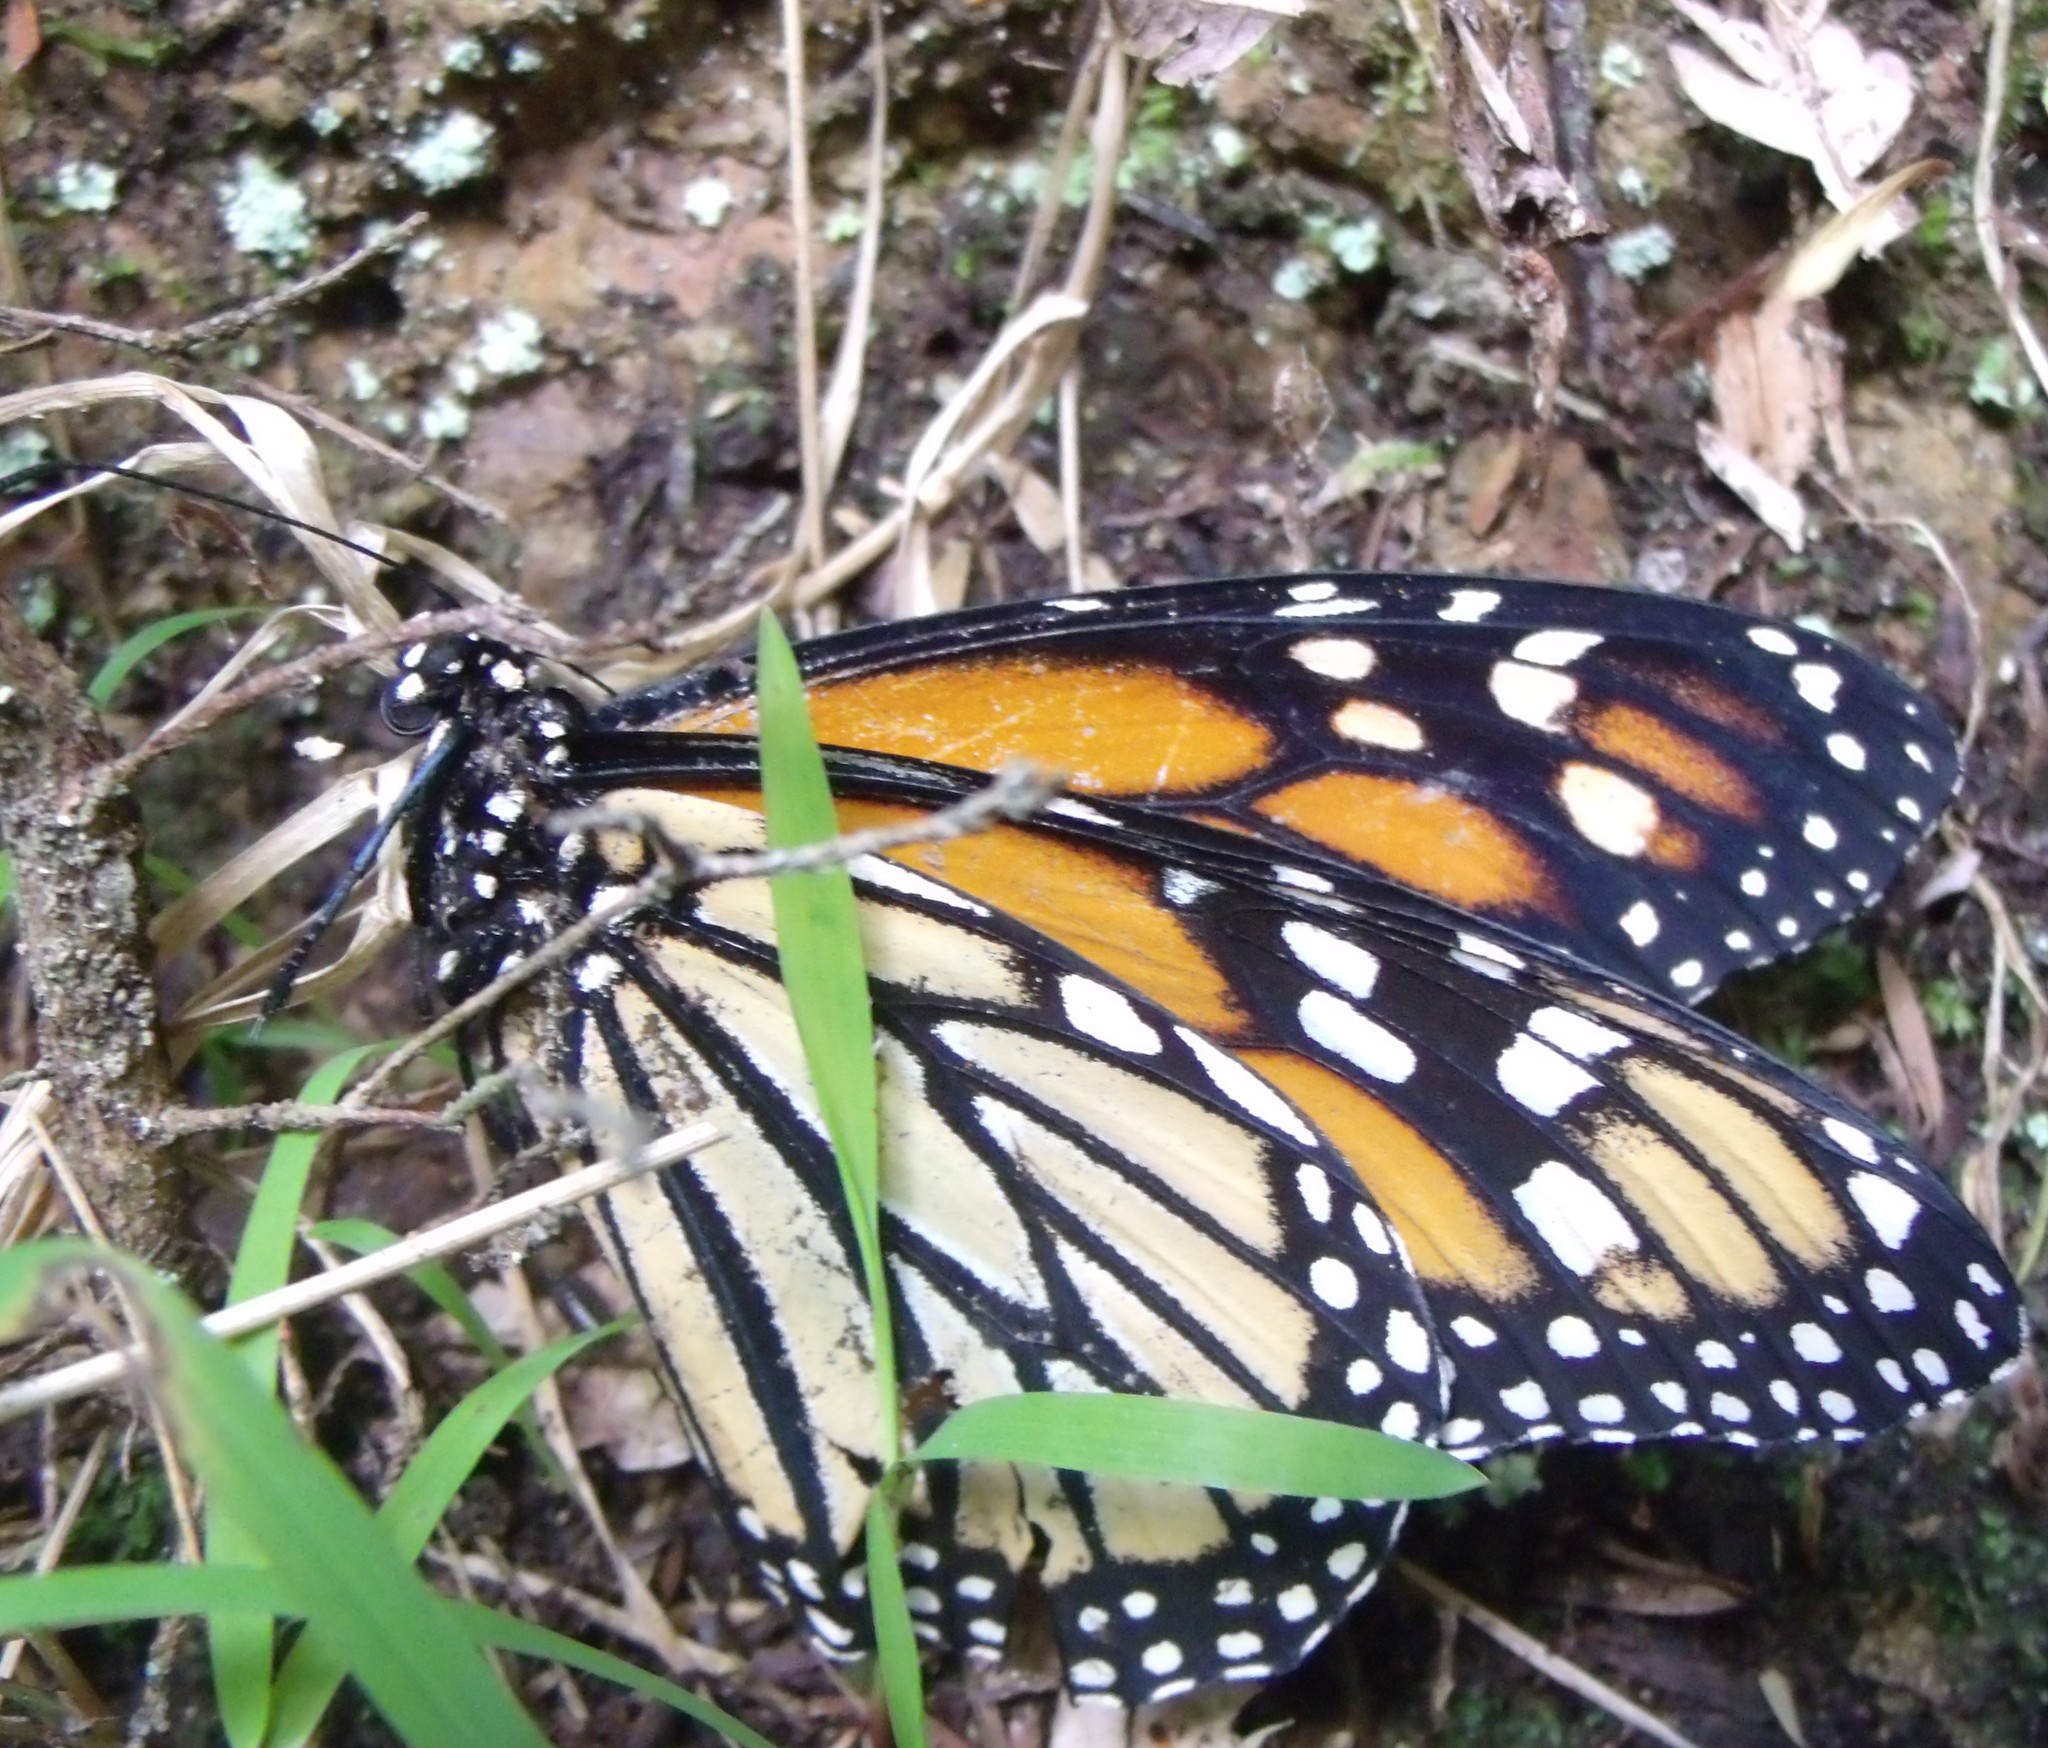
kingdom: Animalia
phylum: Arthropoda
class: Insecta
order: Lepidoptera
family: Nymphalidae
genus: Danaus
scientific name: Danaus plexippus
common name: Monarch
